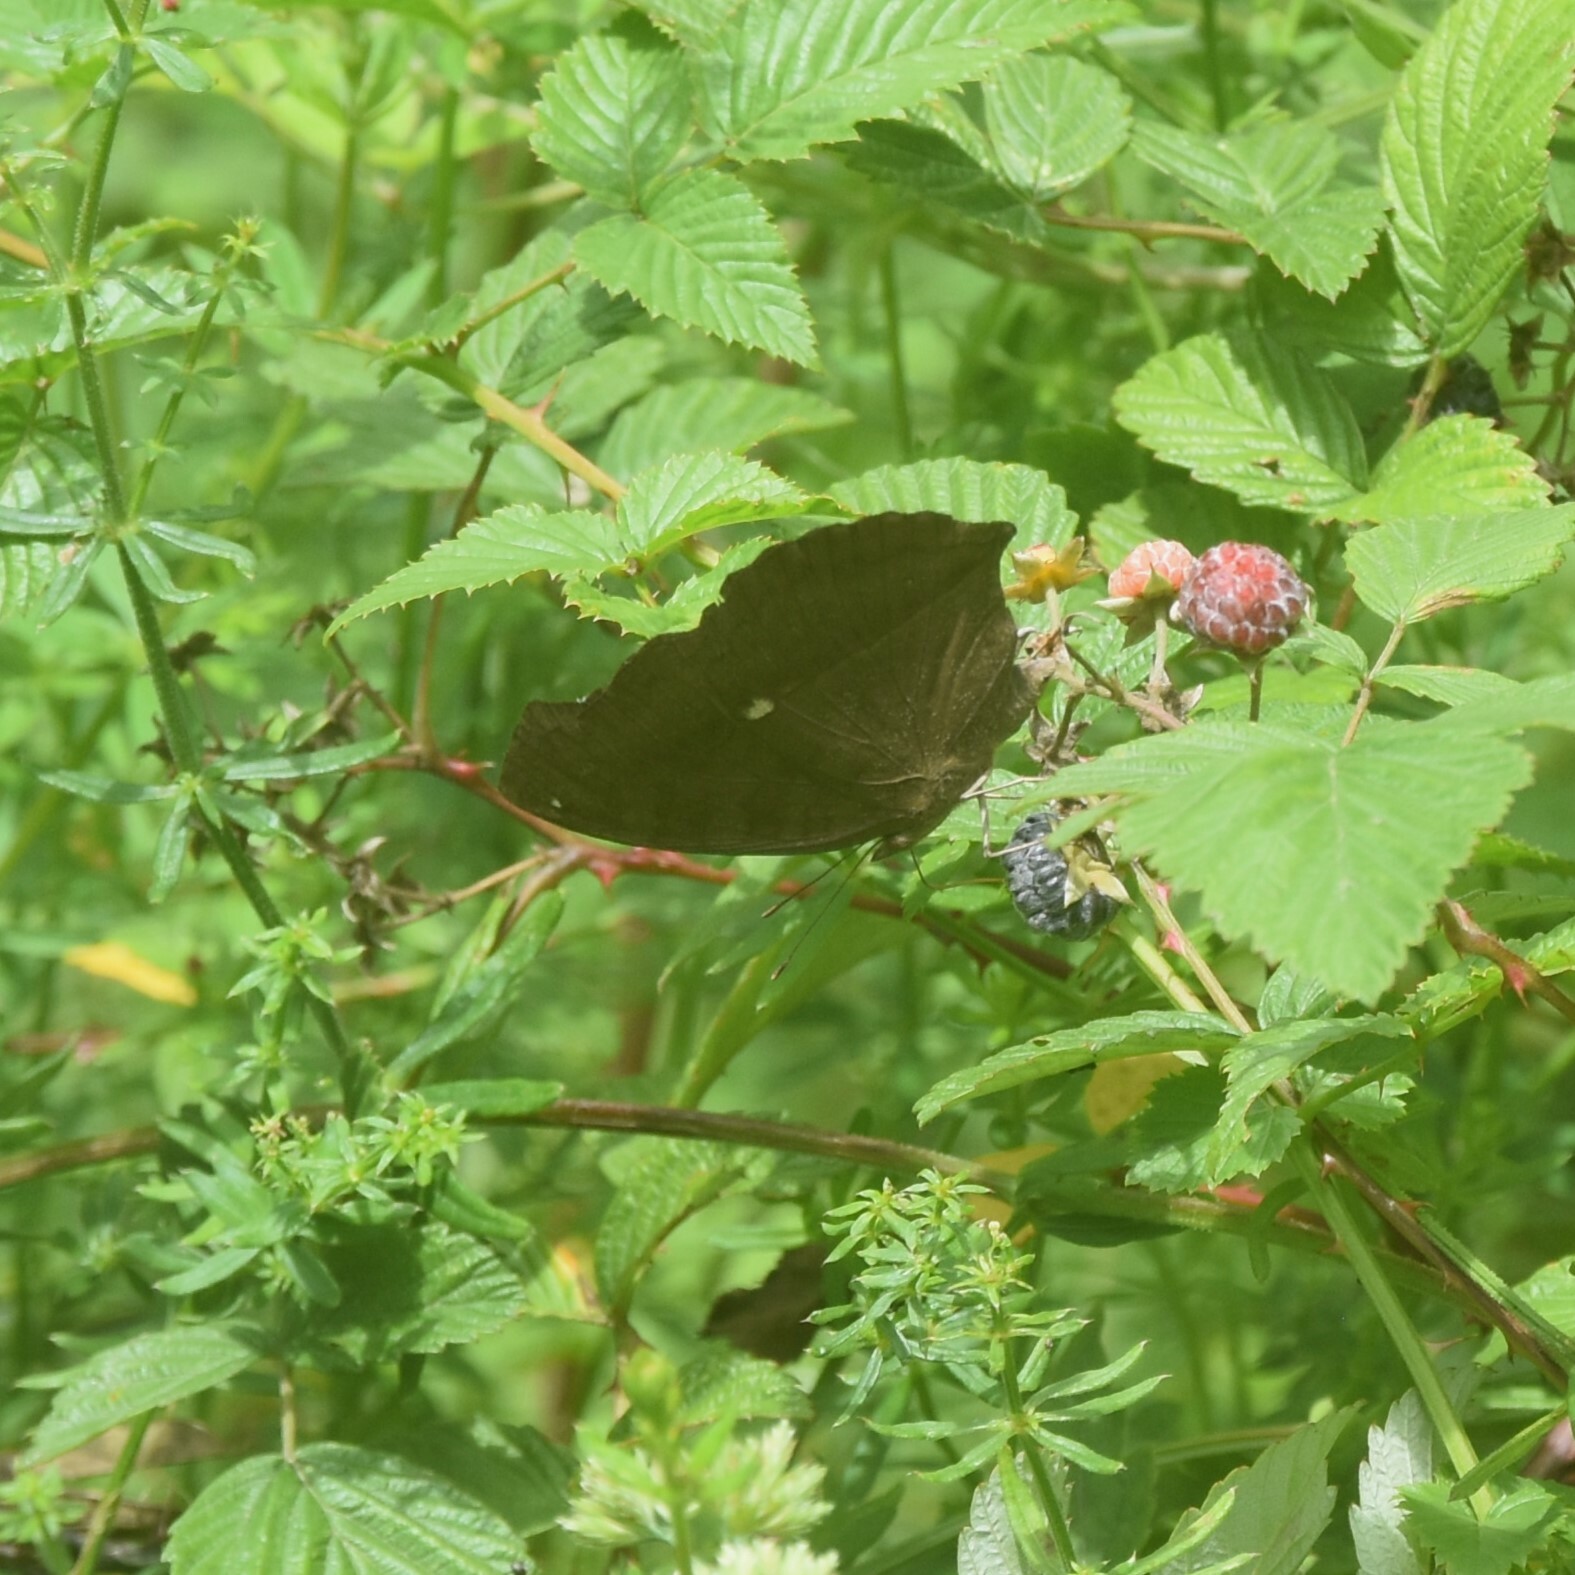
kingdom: Animalia
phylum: Arthropoda
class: Insecta
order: Lepidoptera
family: Nymphalidae
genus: Junonia
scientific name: Junonia iphita
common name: Chocolate pansy
